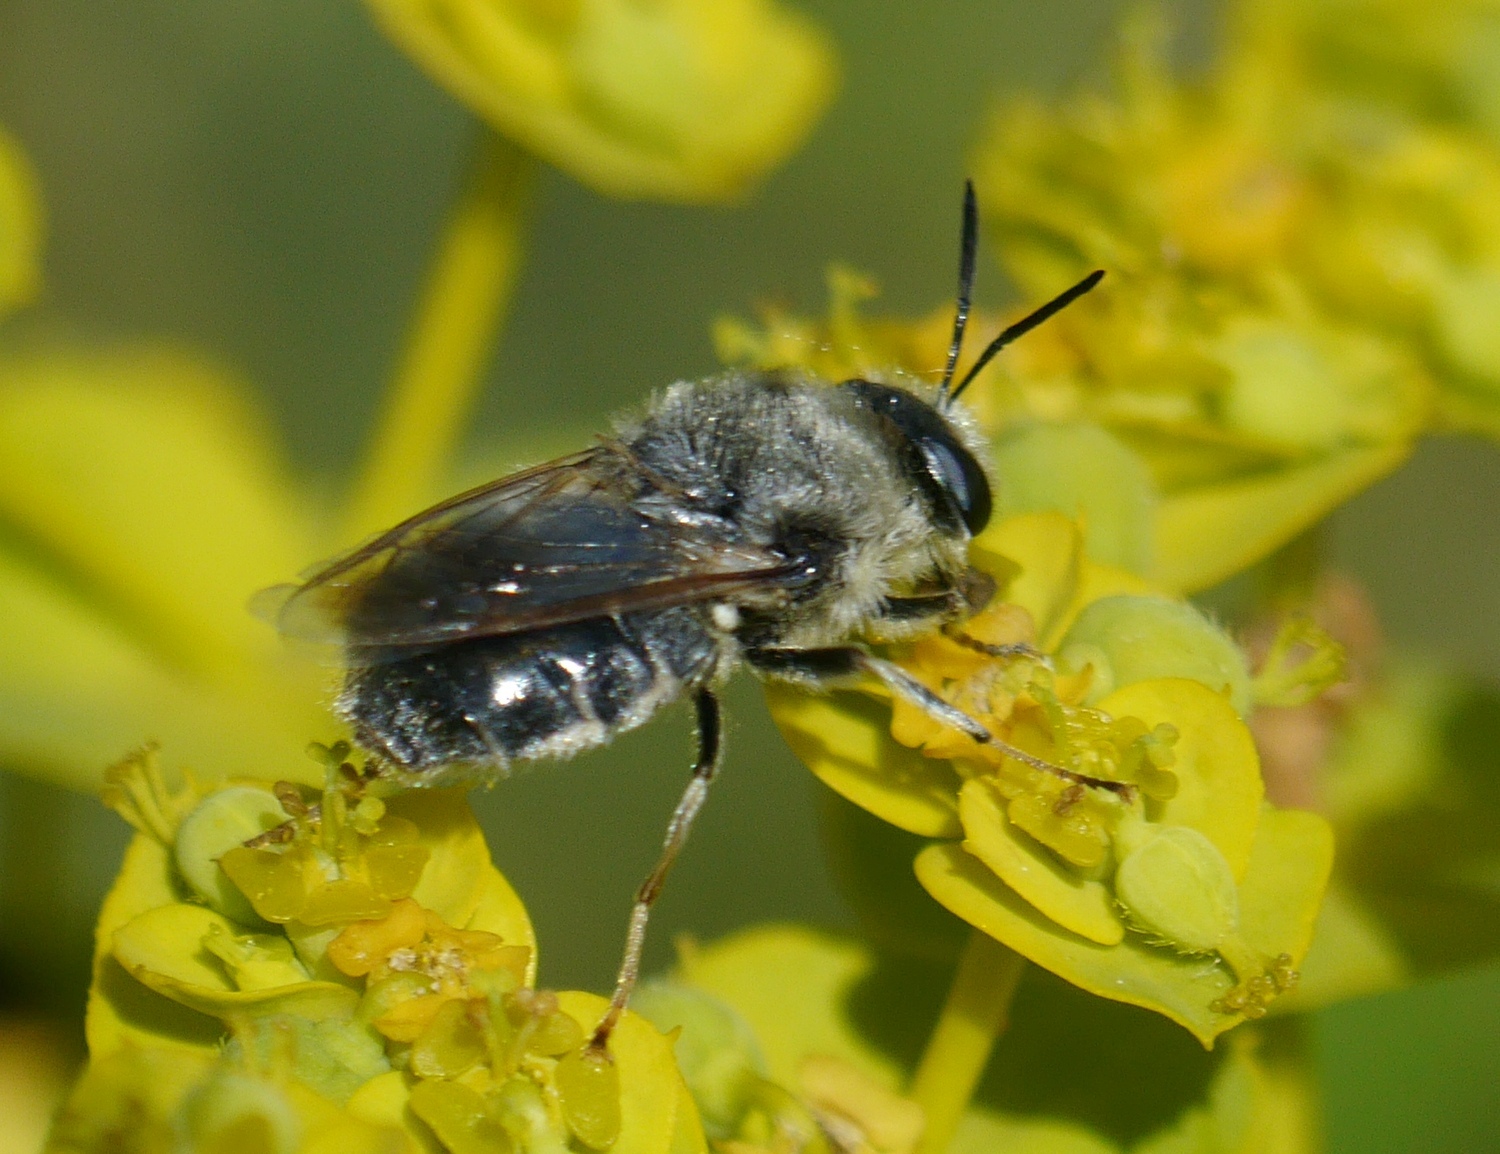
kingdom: Animalia
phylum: Arthropoda
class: Insecta
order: Diptera
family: Stratiomyidae
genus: Stratiomys
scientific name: Stratiomys longicornis
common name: Long-horned general
